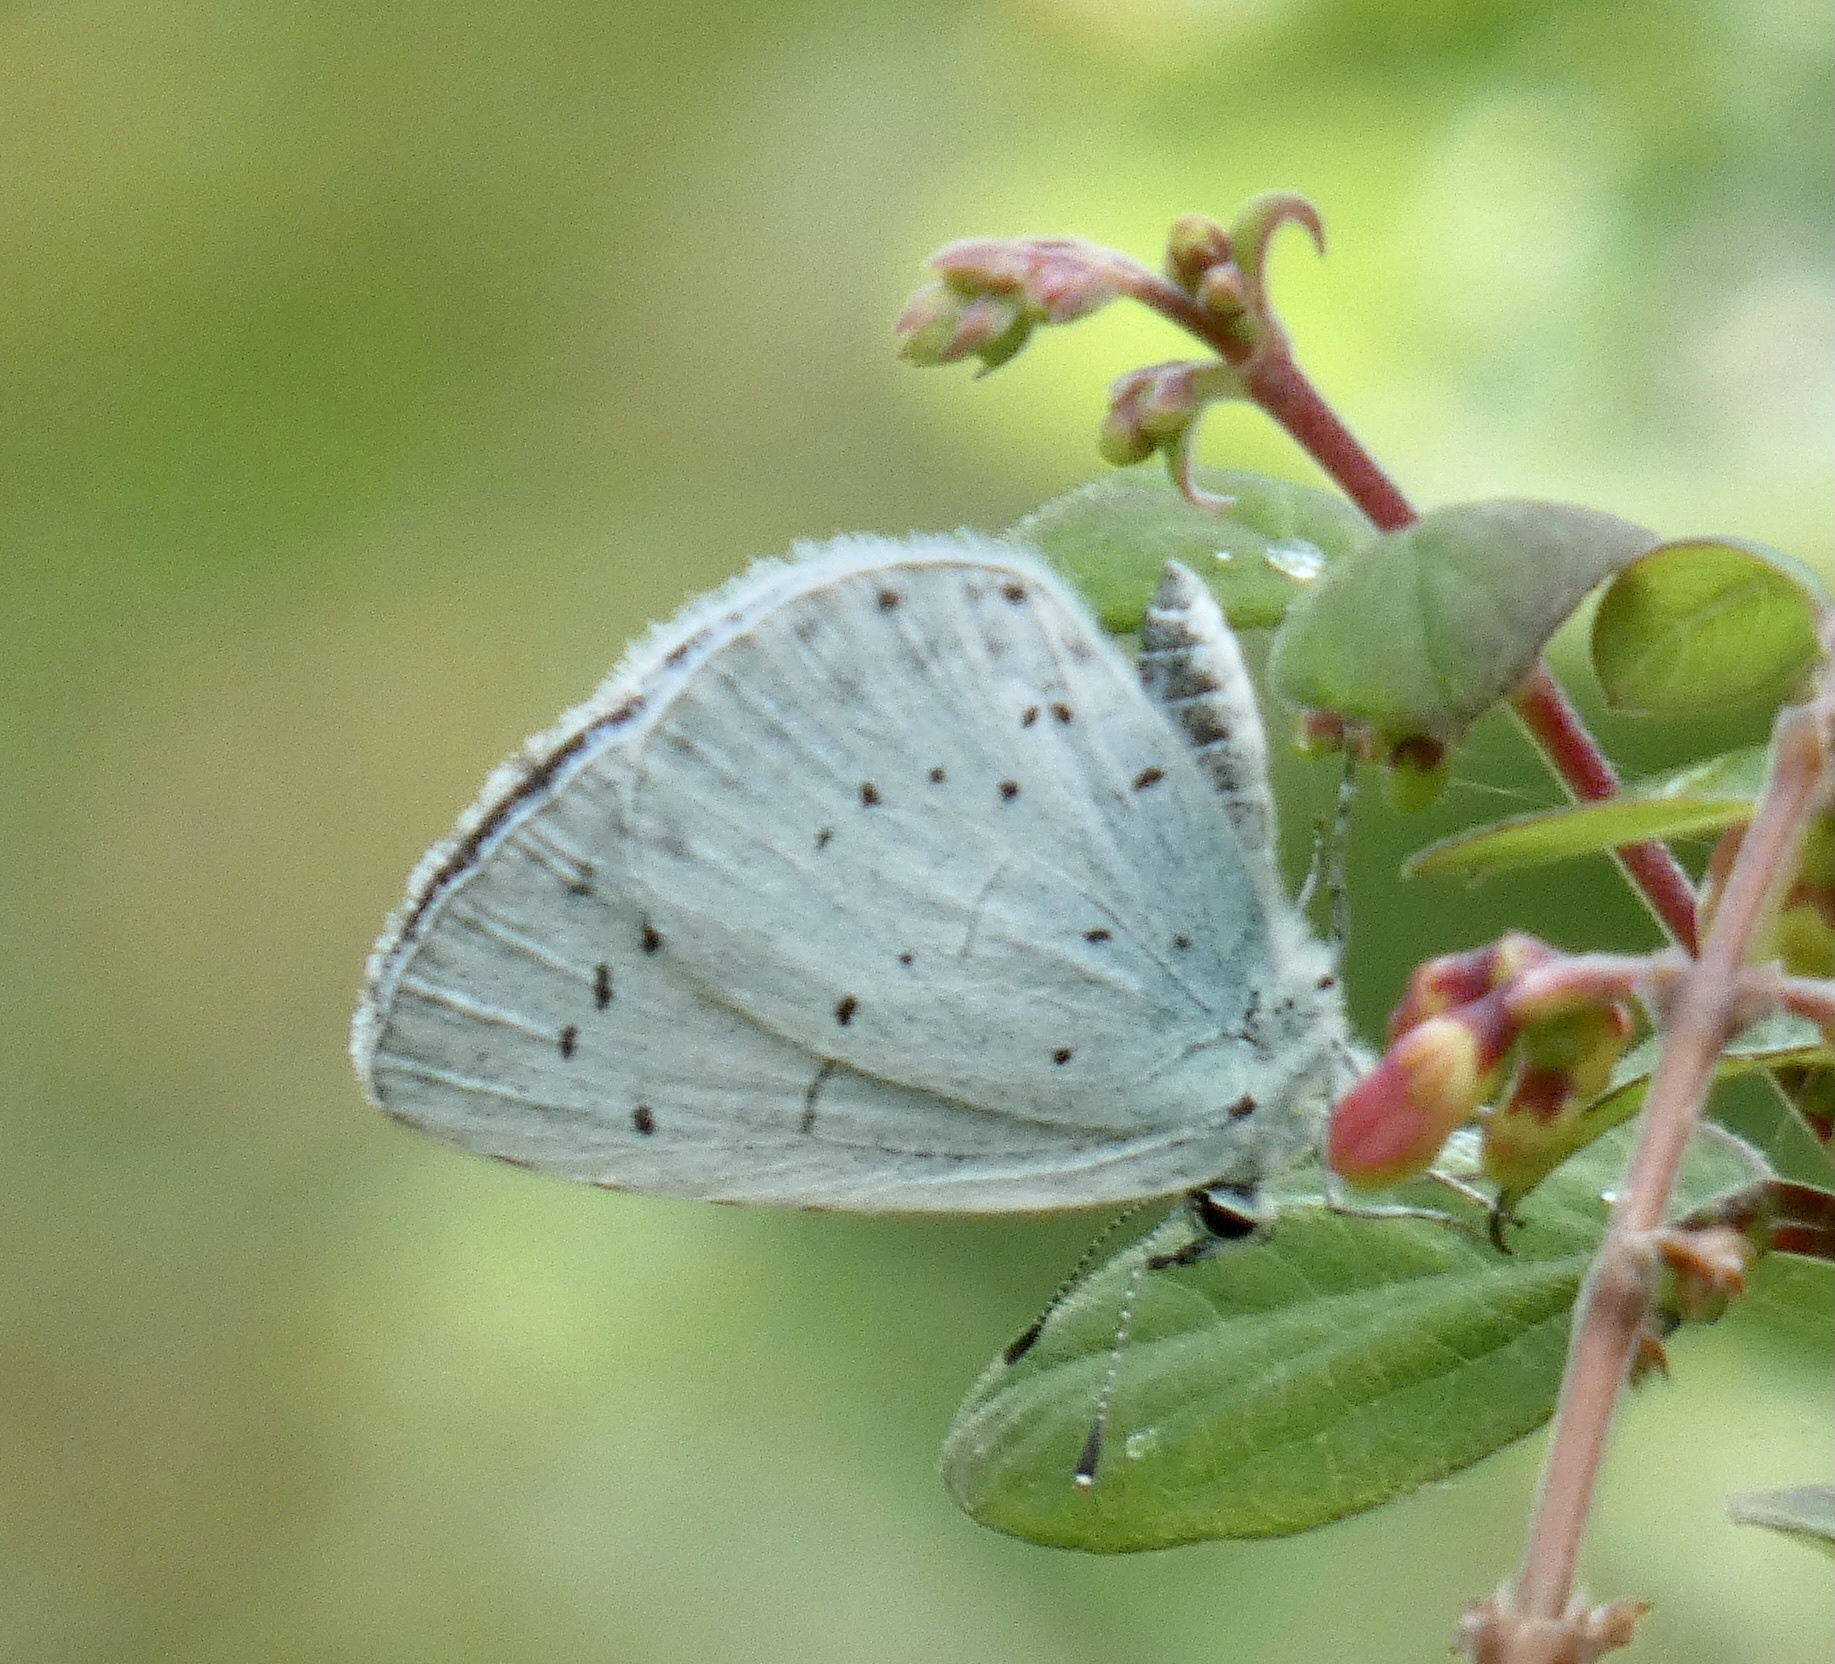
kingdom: Animalia
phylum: Arthropoda
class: Insecta
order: Lepidoptera
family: Lycaenidae
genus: Celastrina
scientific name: Celastrina argiolus
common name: Holly blue
